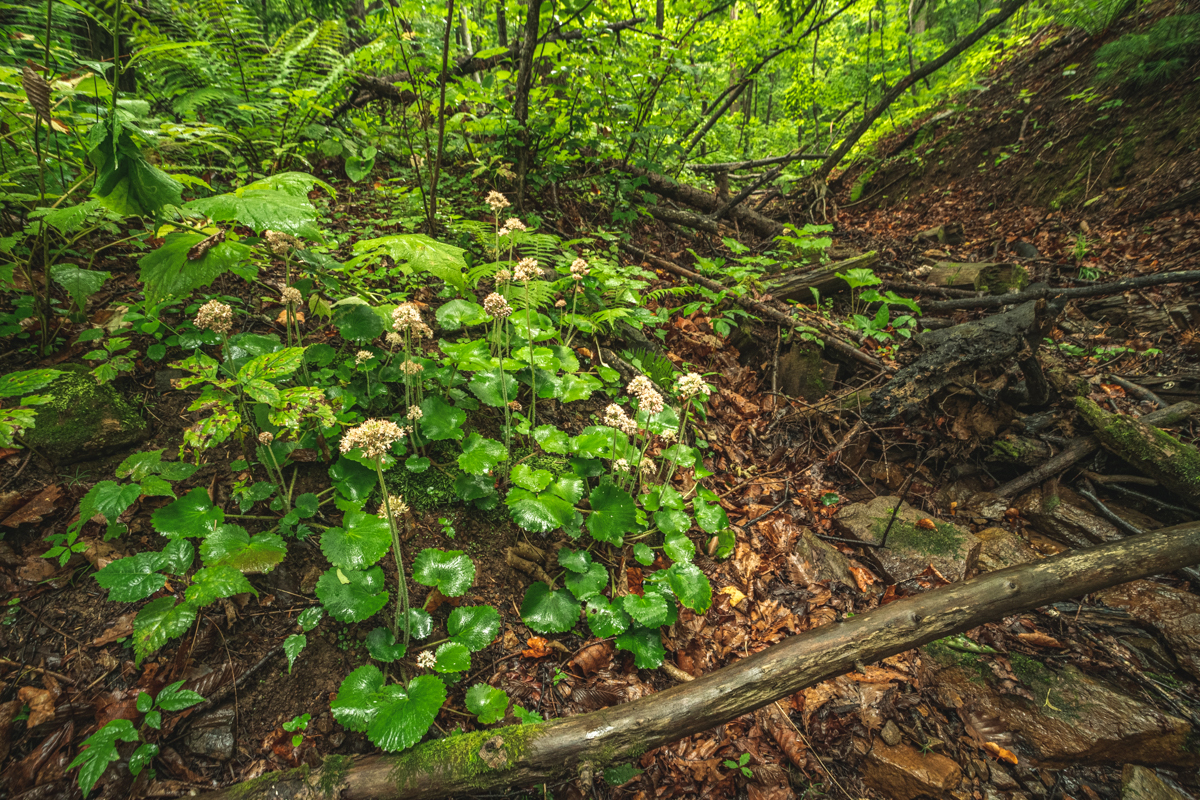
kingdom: Plantae
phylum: Tracheophyta
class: Magnoliopsida
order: Saxifragales
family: Saxifragaceae
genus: Micranthes
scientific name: Micranthes manchuriensis
